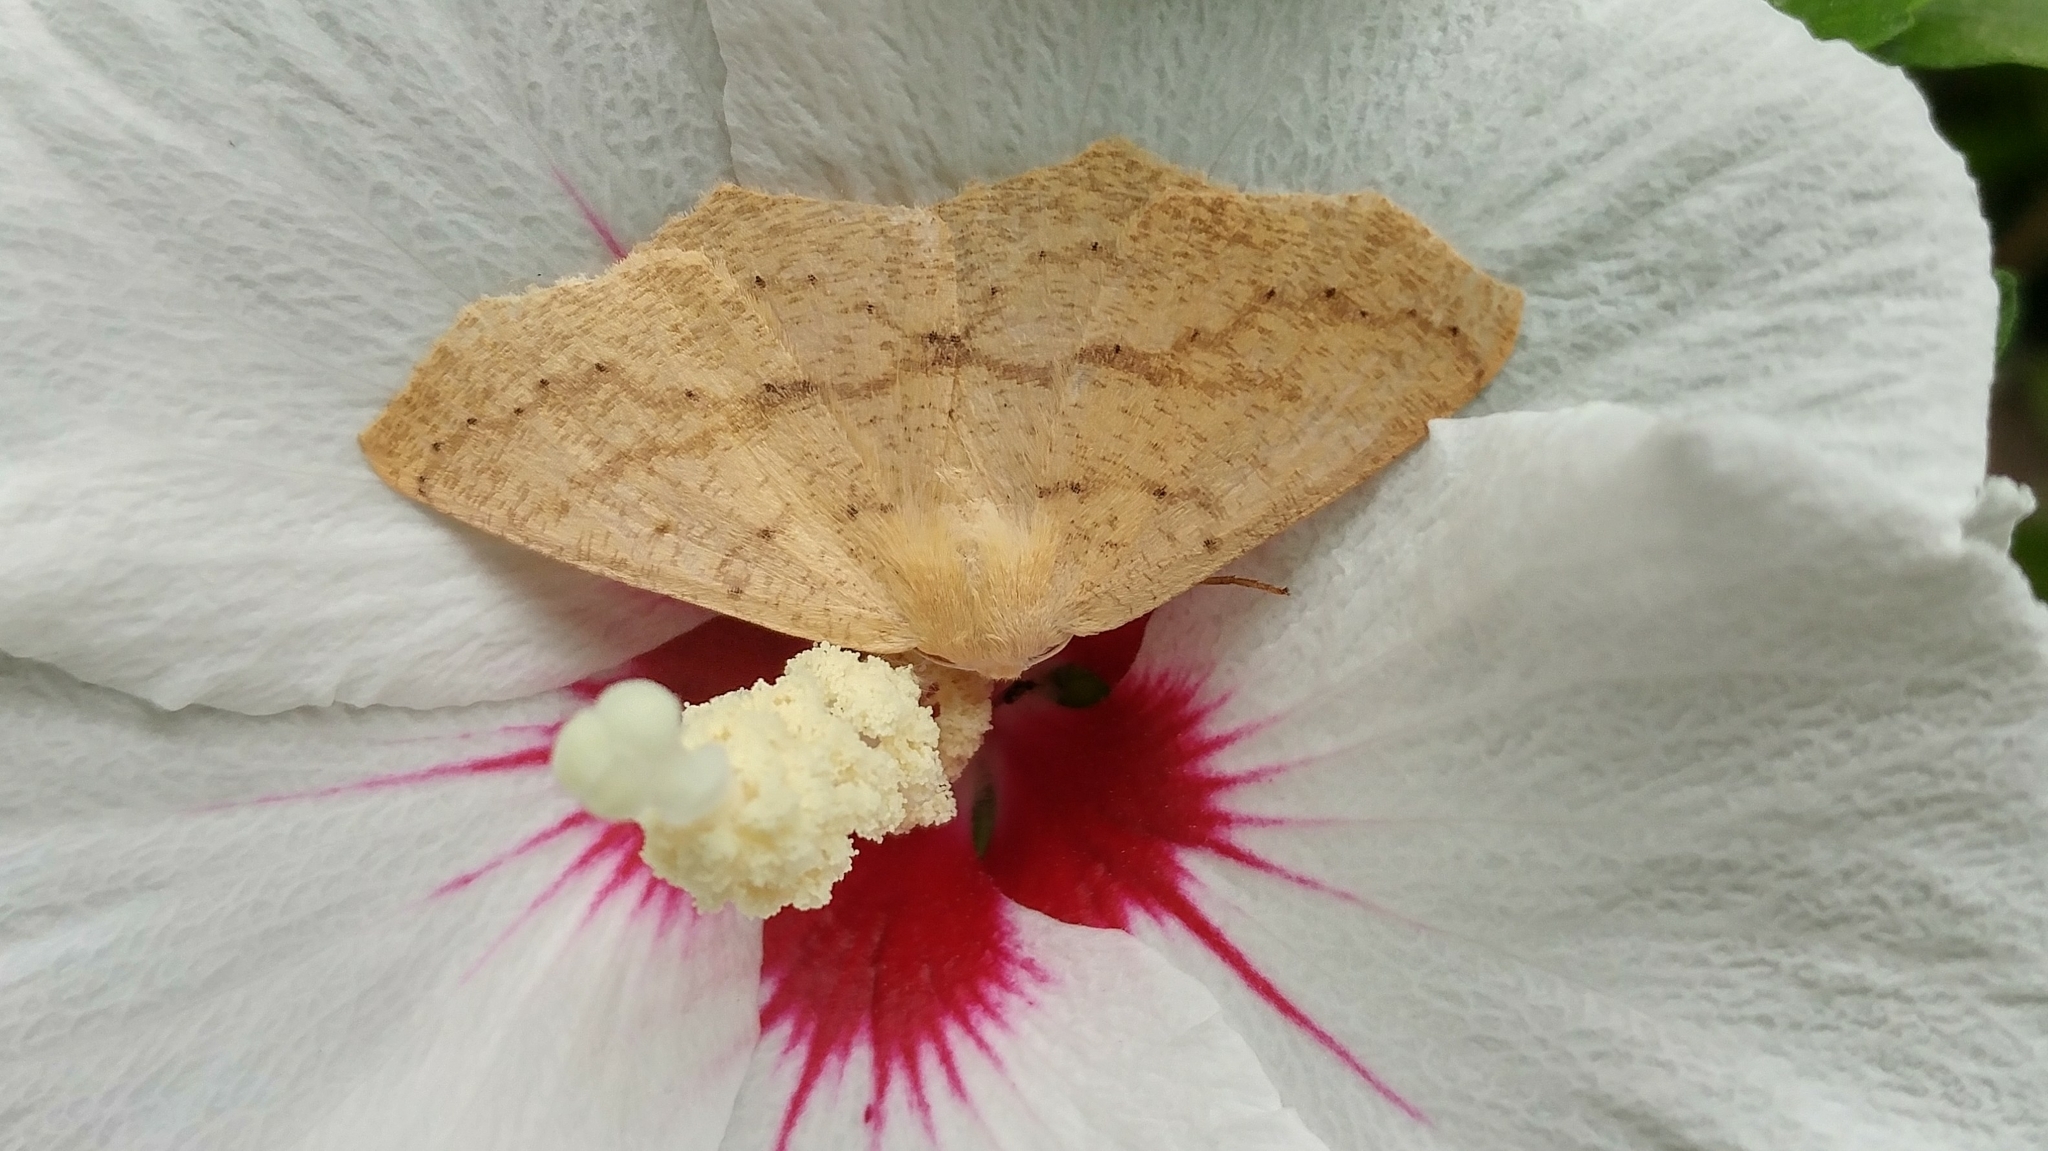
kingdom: Animalia
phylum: Arthropoda
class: Insecta
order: Lepidoptera
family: Geometridae
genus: Sabulodes
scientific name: Sabulodes aegrotata
